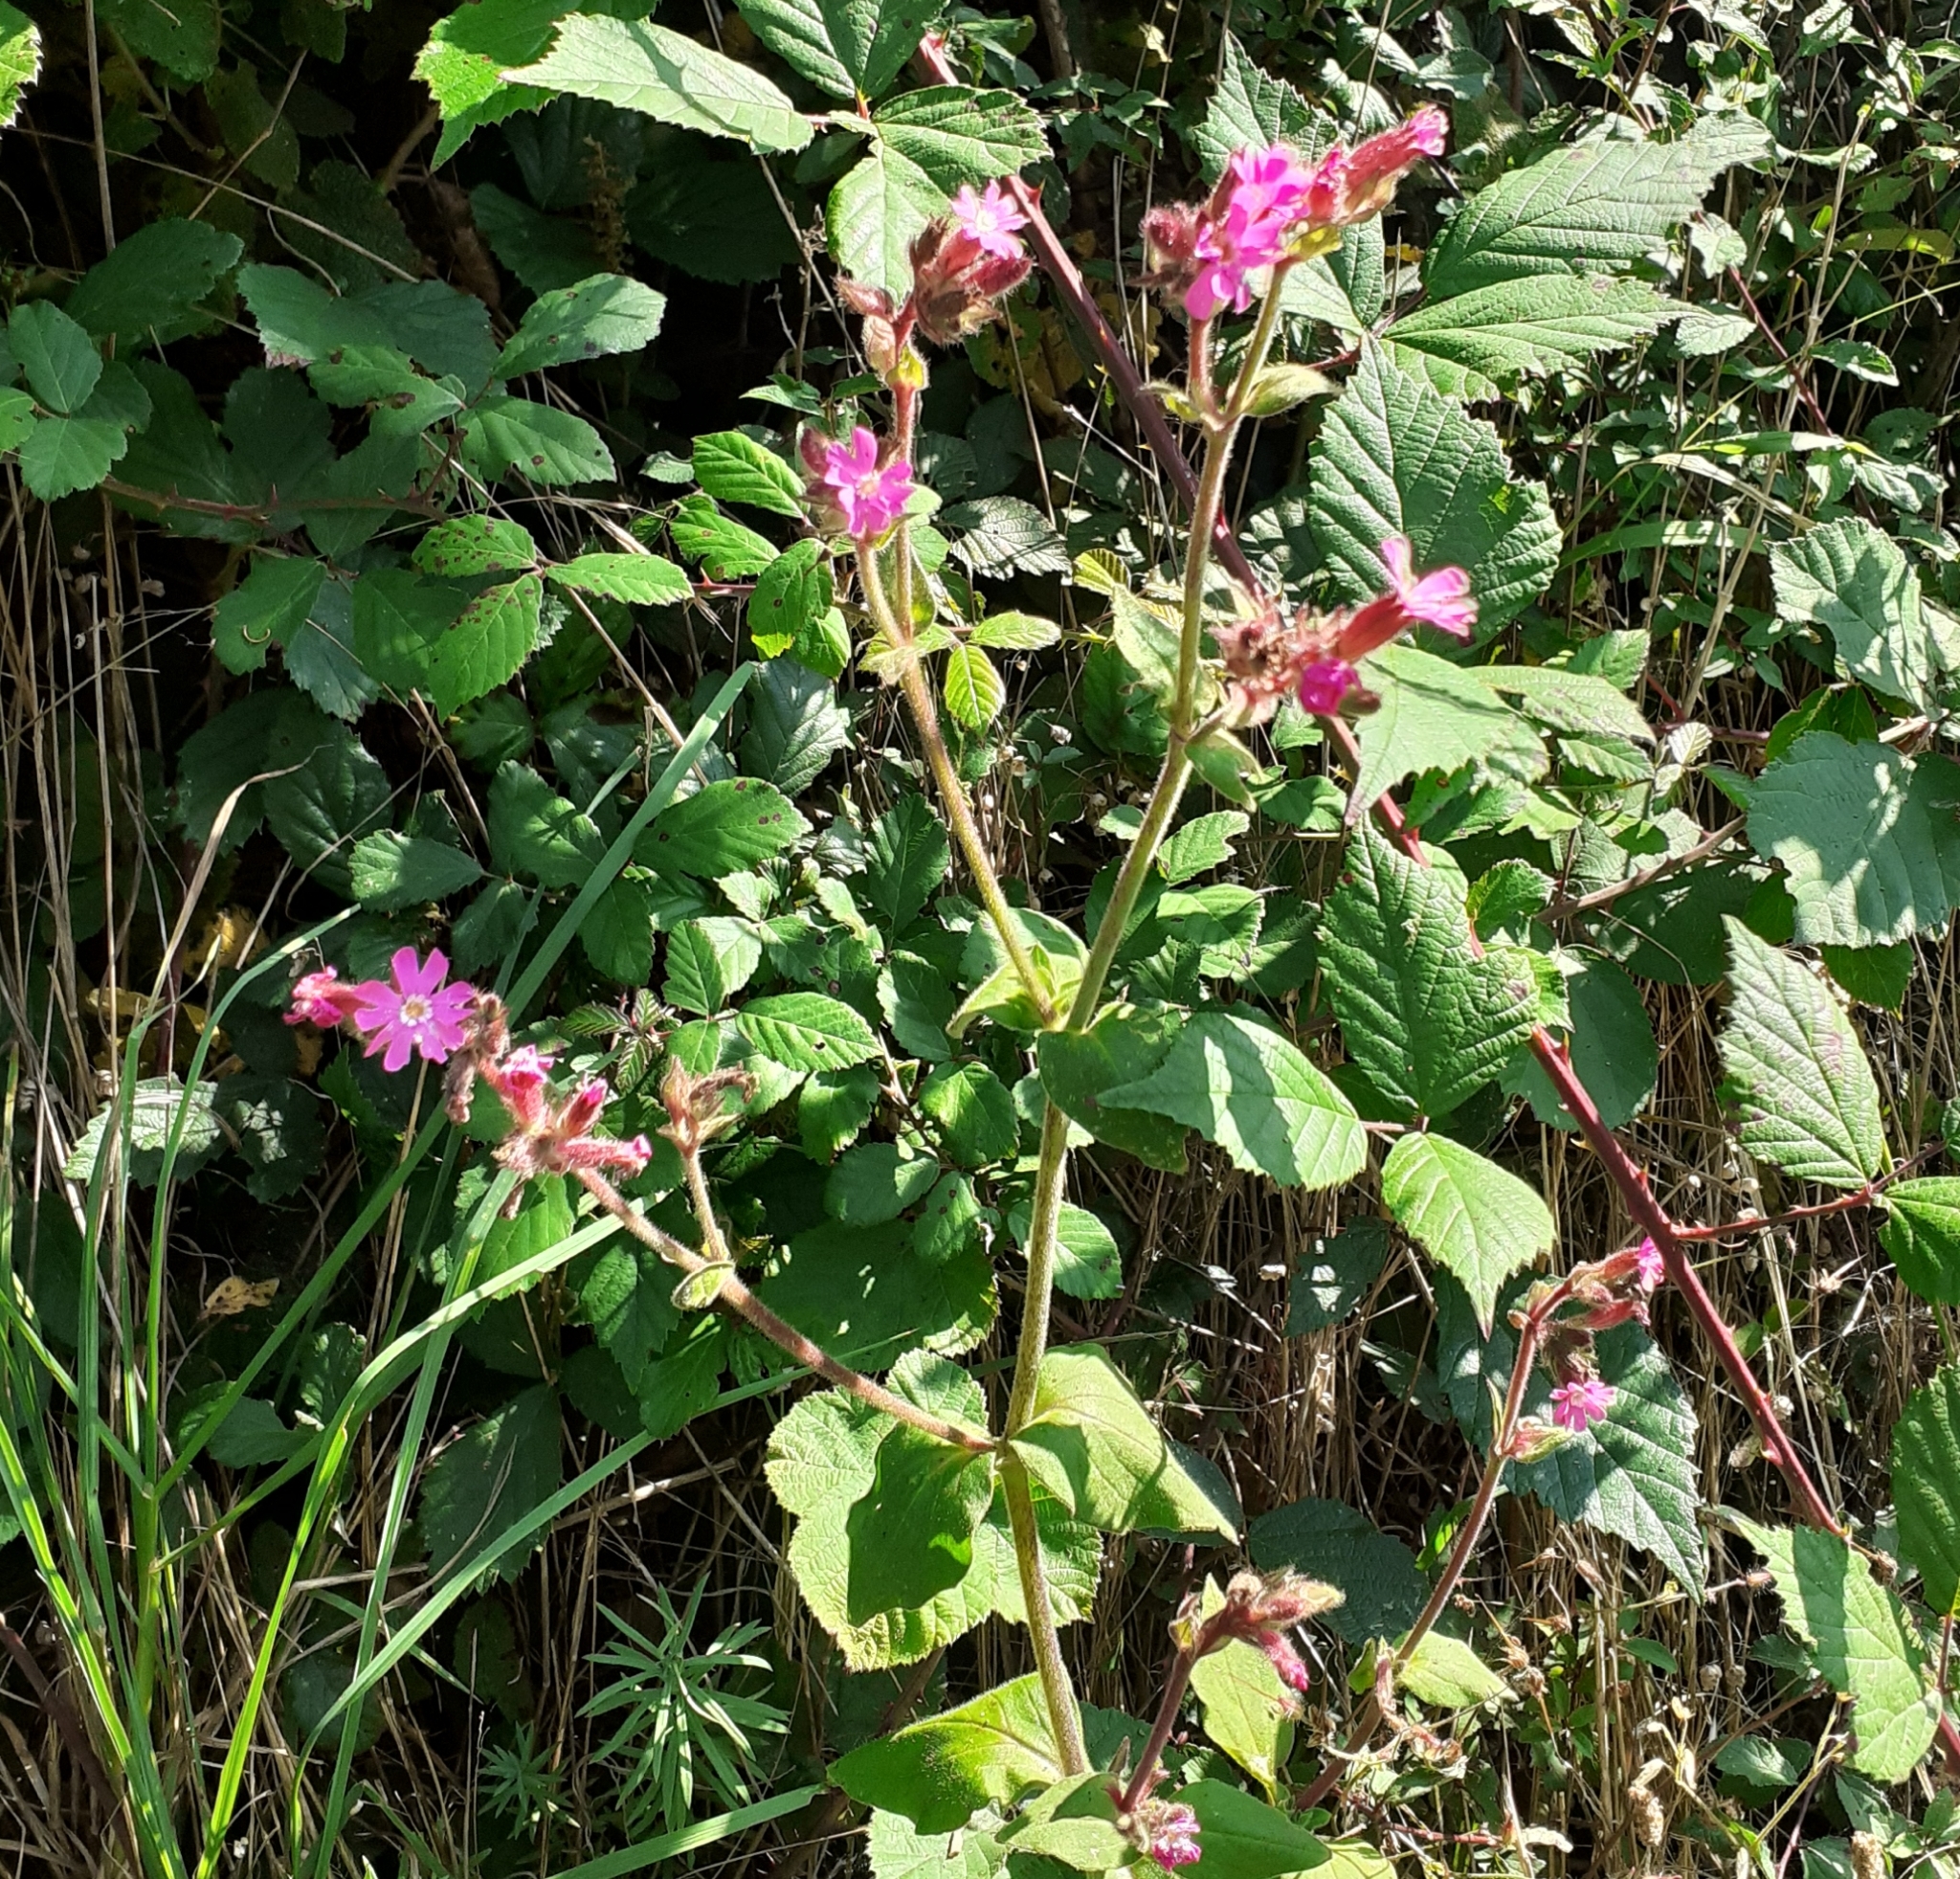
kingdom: Plantae
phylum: Tracheophyta
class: Magnoliopsida
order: Caryophyllales
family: Caryophyllaceae
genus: Silene
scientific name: Silene dioica
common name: Red campion
